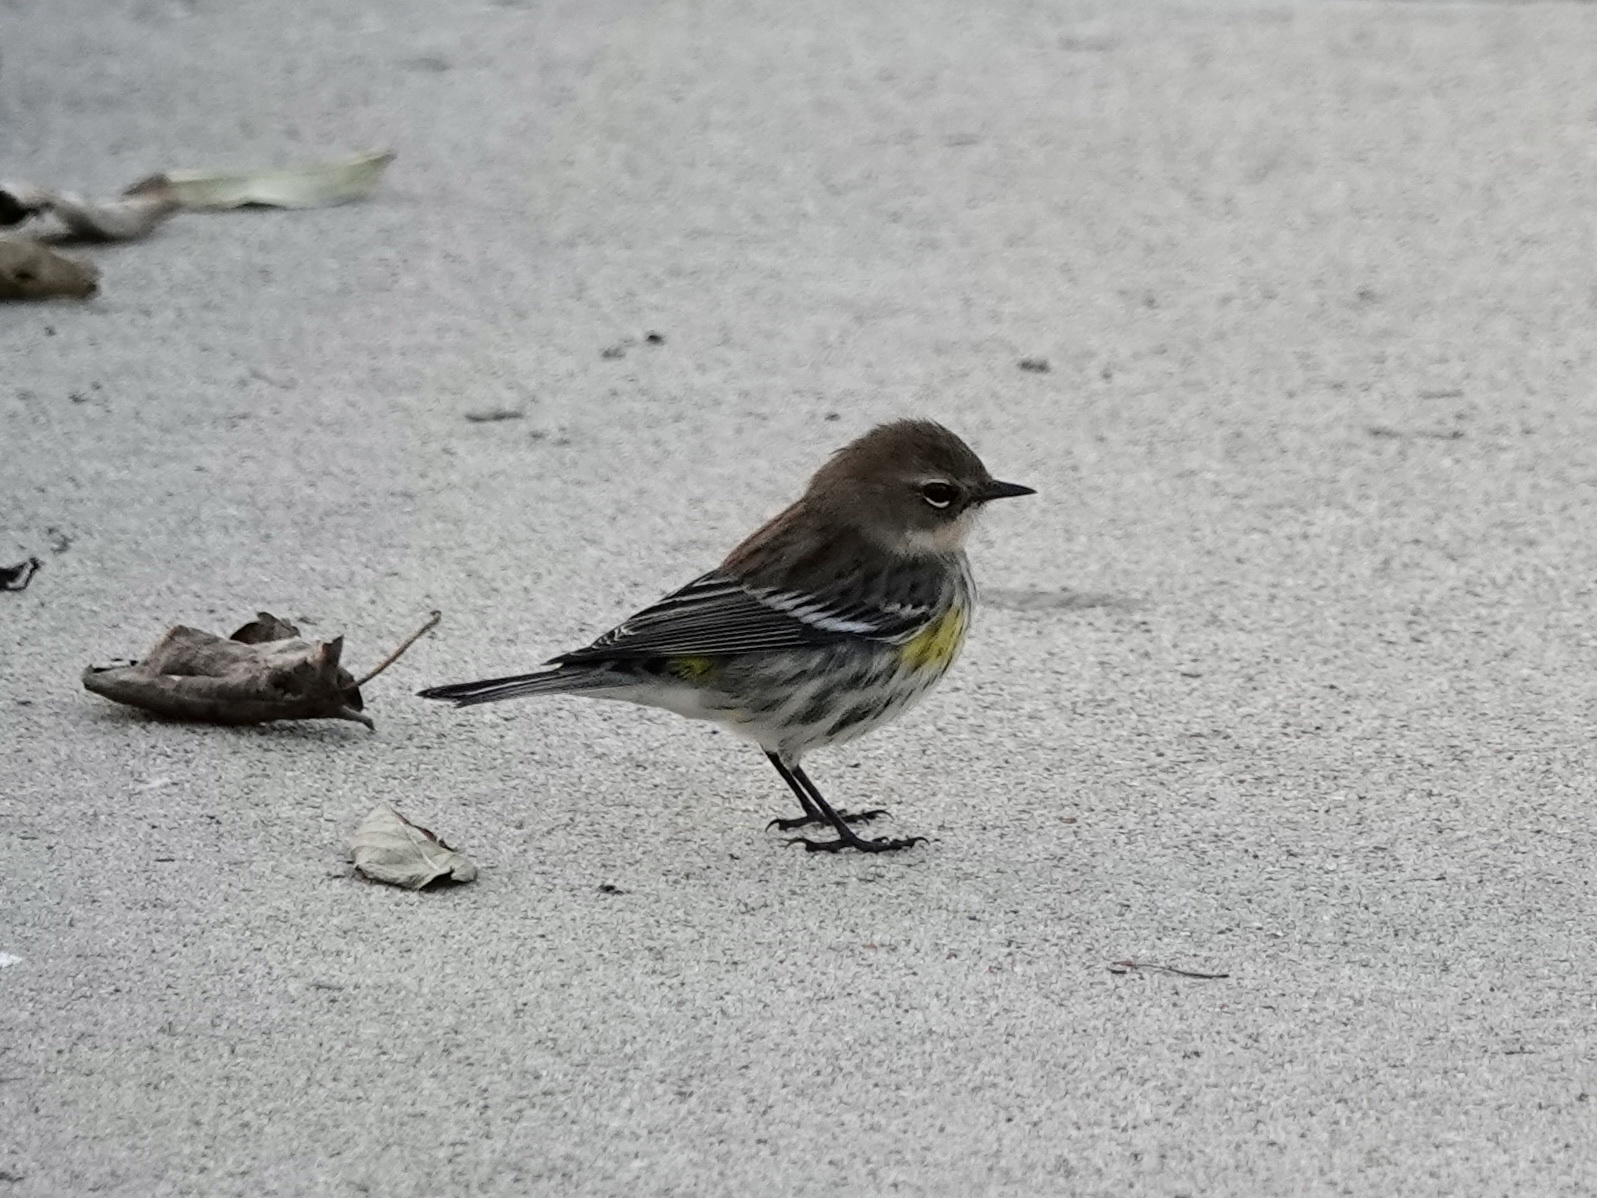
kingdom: Animalia
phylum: Chordata
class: Aves
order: Passeriformes
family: Parulidae
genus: Setophaga
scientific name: Setophaga coronata
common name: Myrtle warbler
